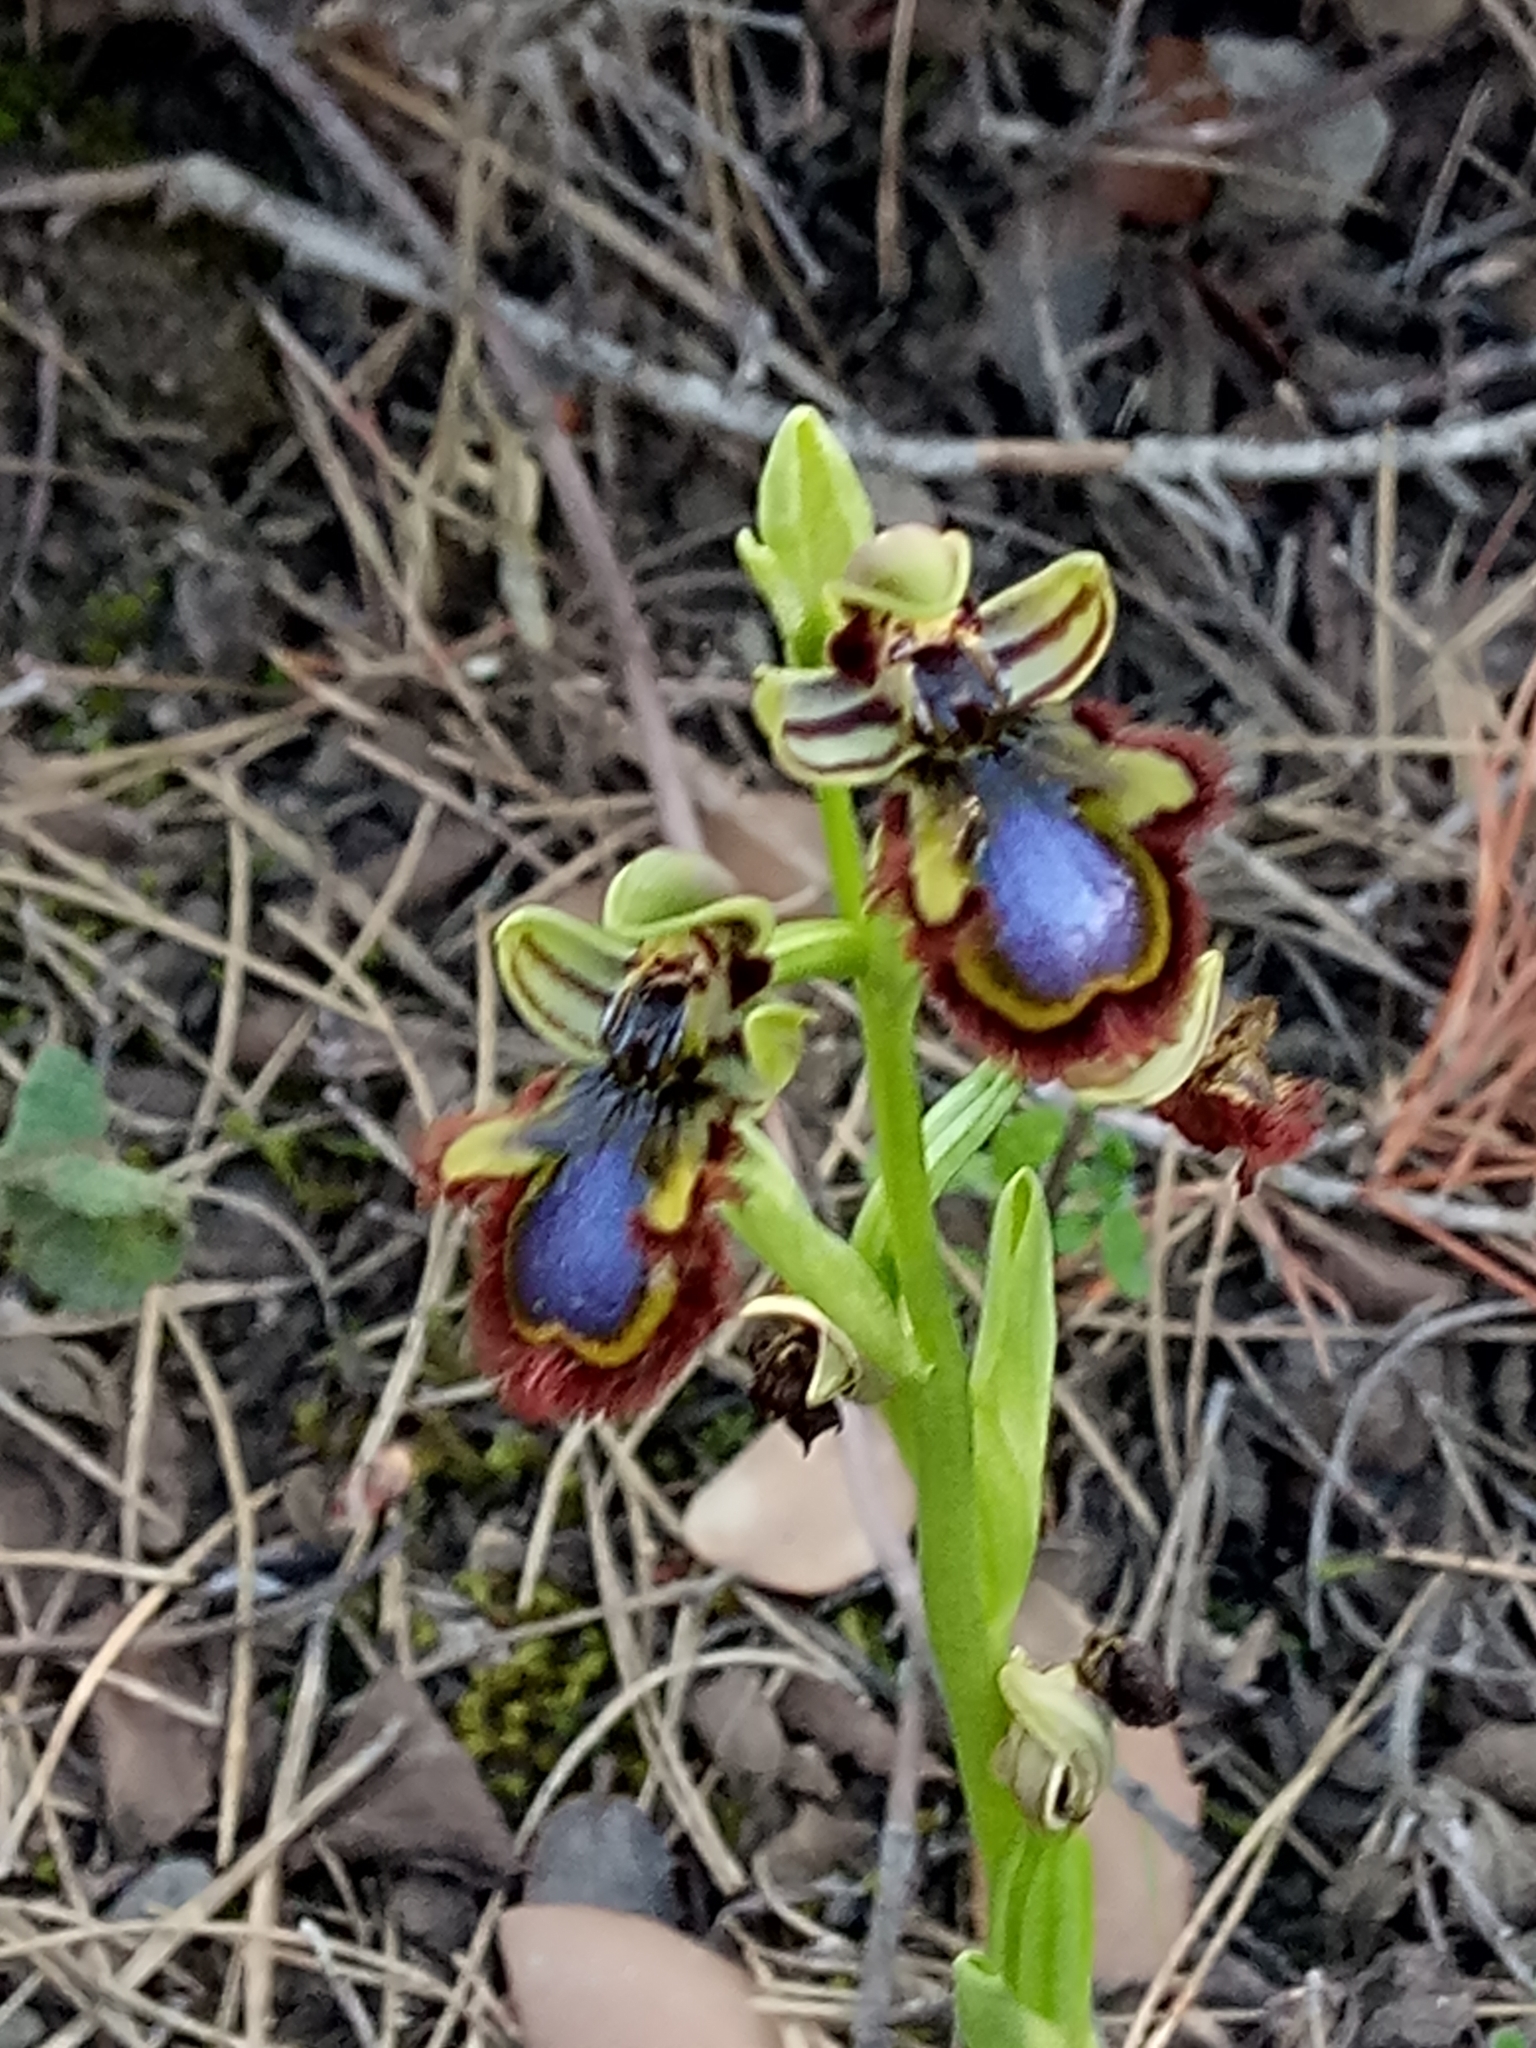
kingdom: Plantae
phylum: Tracheophyta
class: Liliopsida
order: Asparagales
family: Orchidaceae
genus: Ophrys
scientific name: Ophrys speculum
